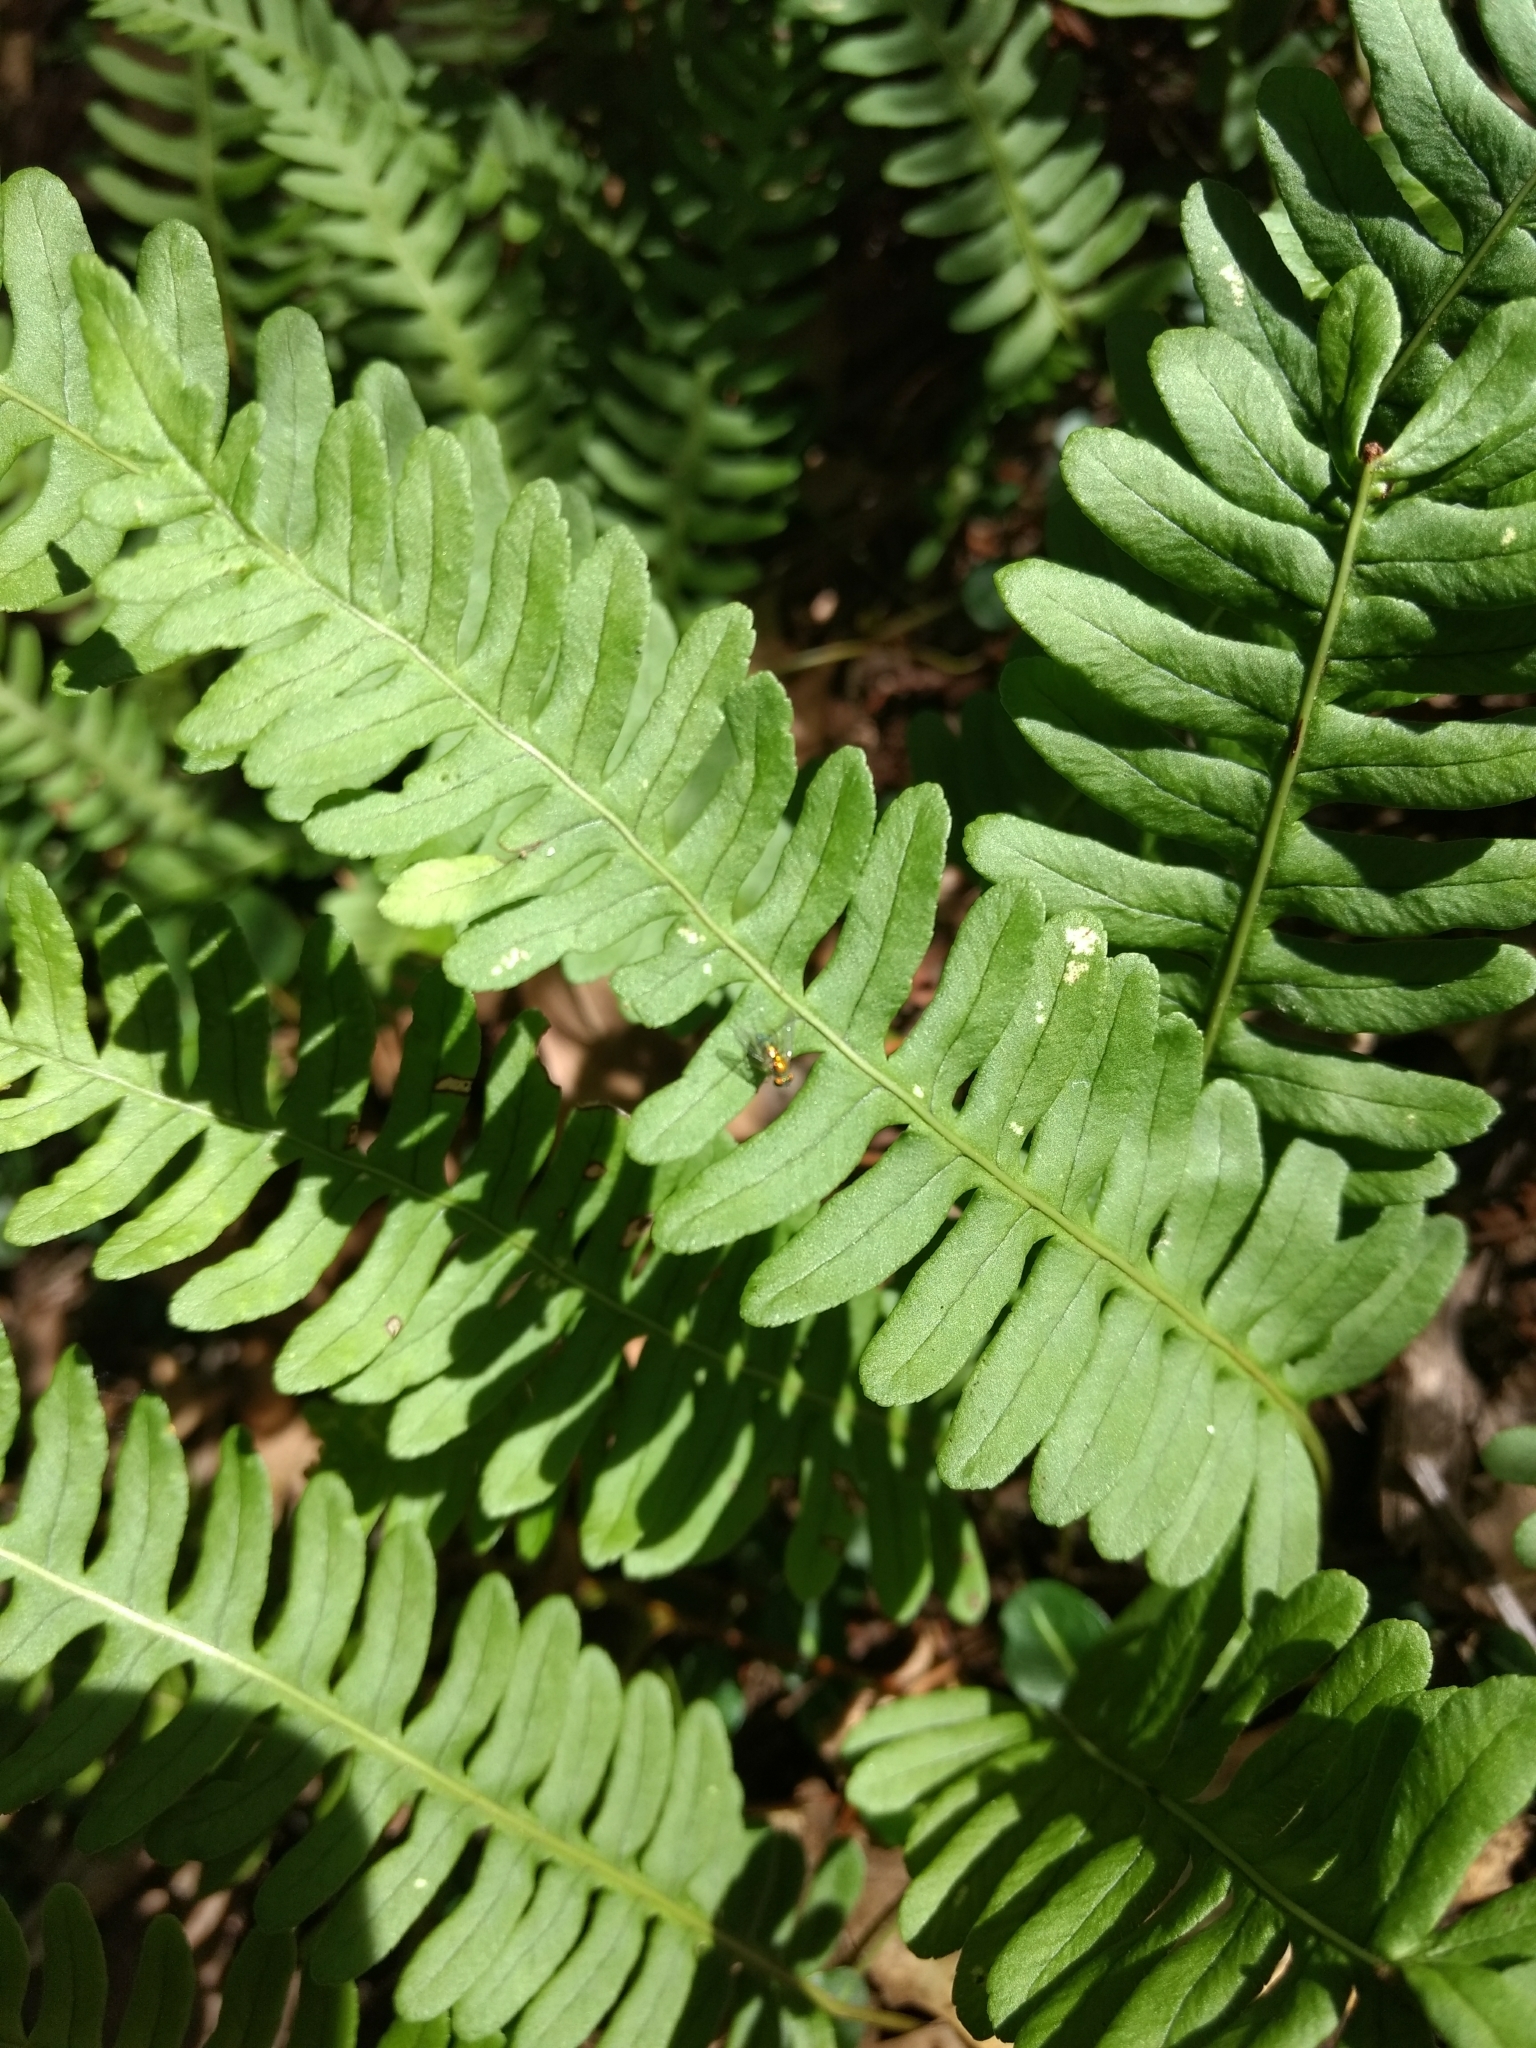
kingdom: Plantae
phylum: Tracheophyta
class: Polypodiopsida
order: Polypodiales
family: Polypodiaceae
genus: Polypodium
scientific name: Polypodium virginianum
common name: American wall fern
